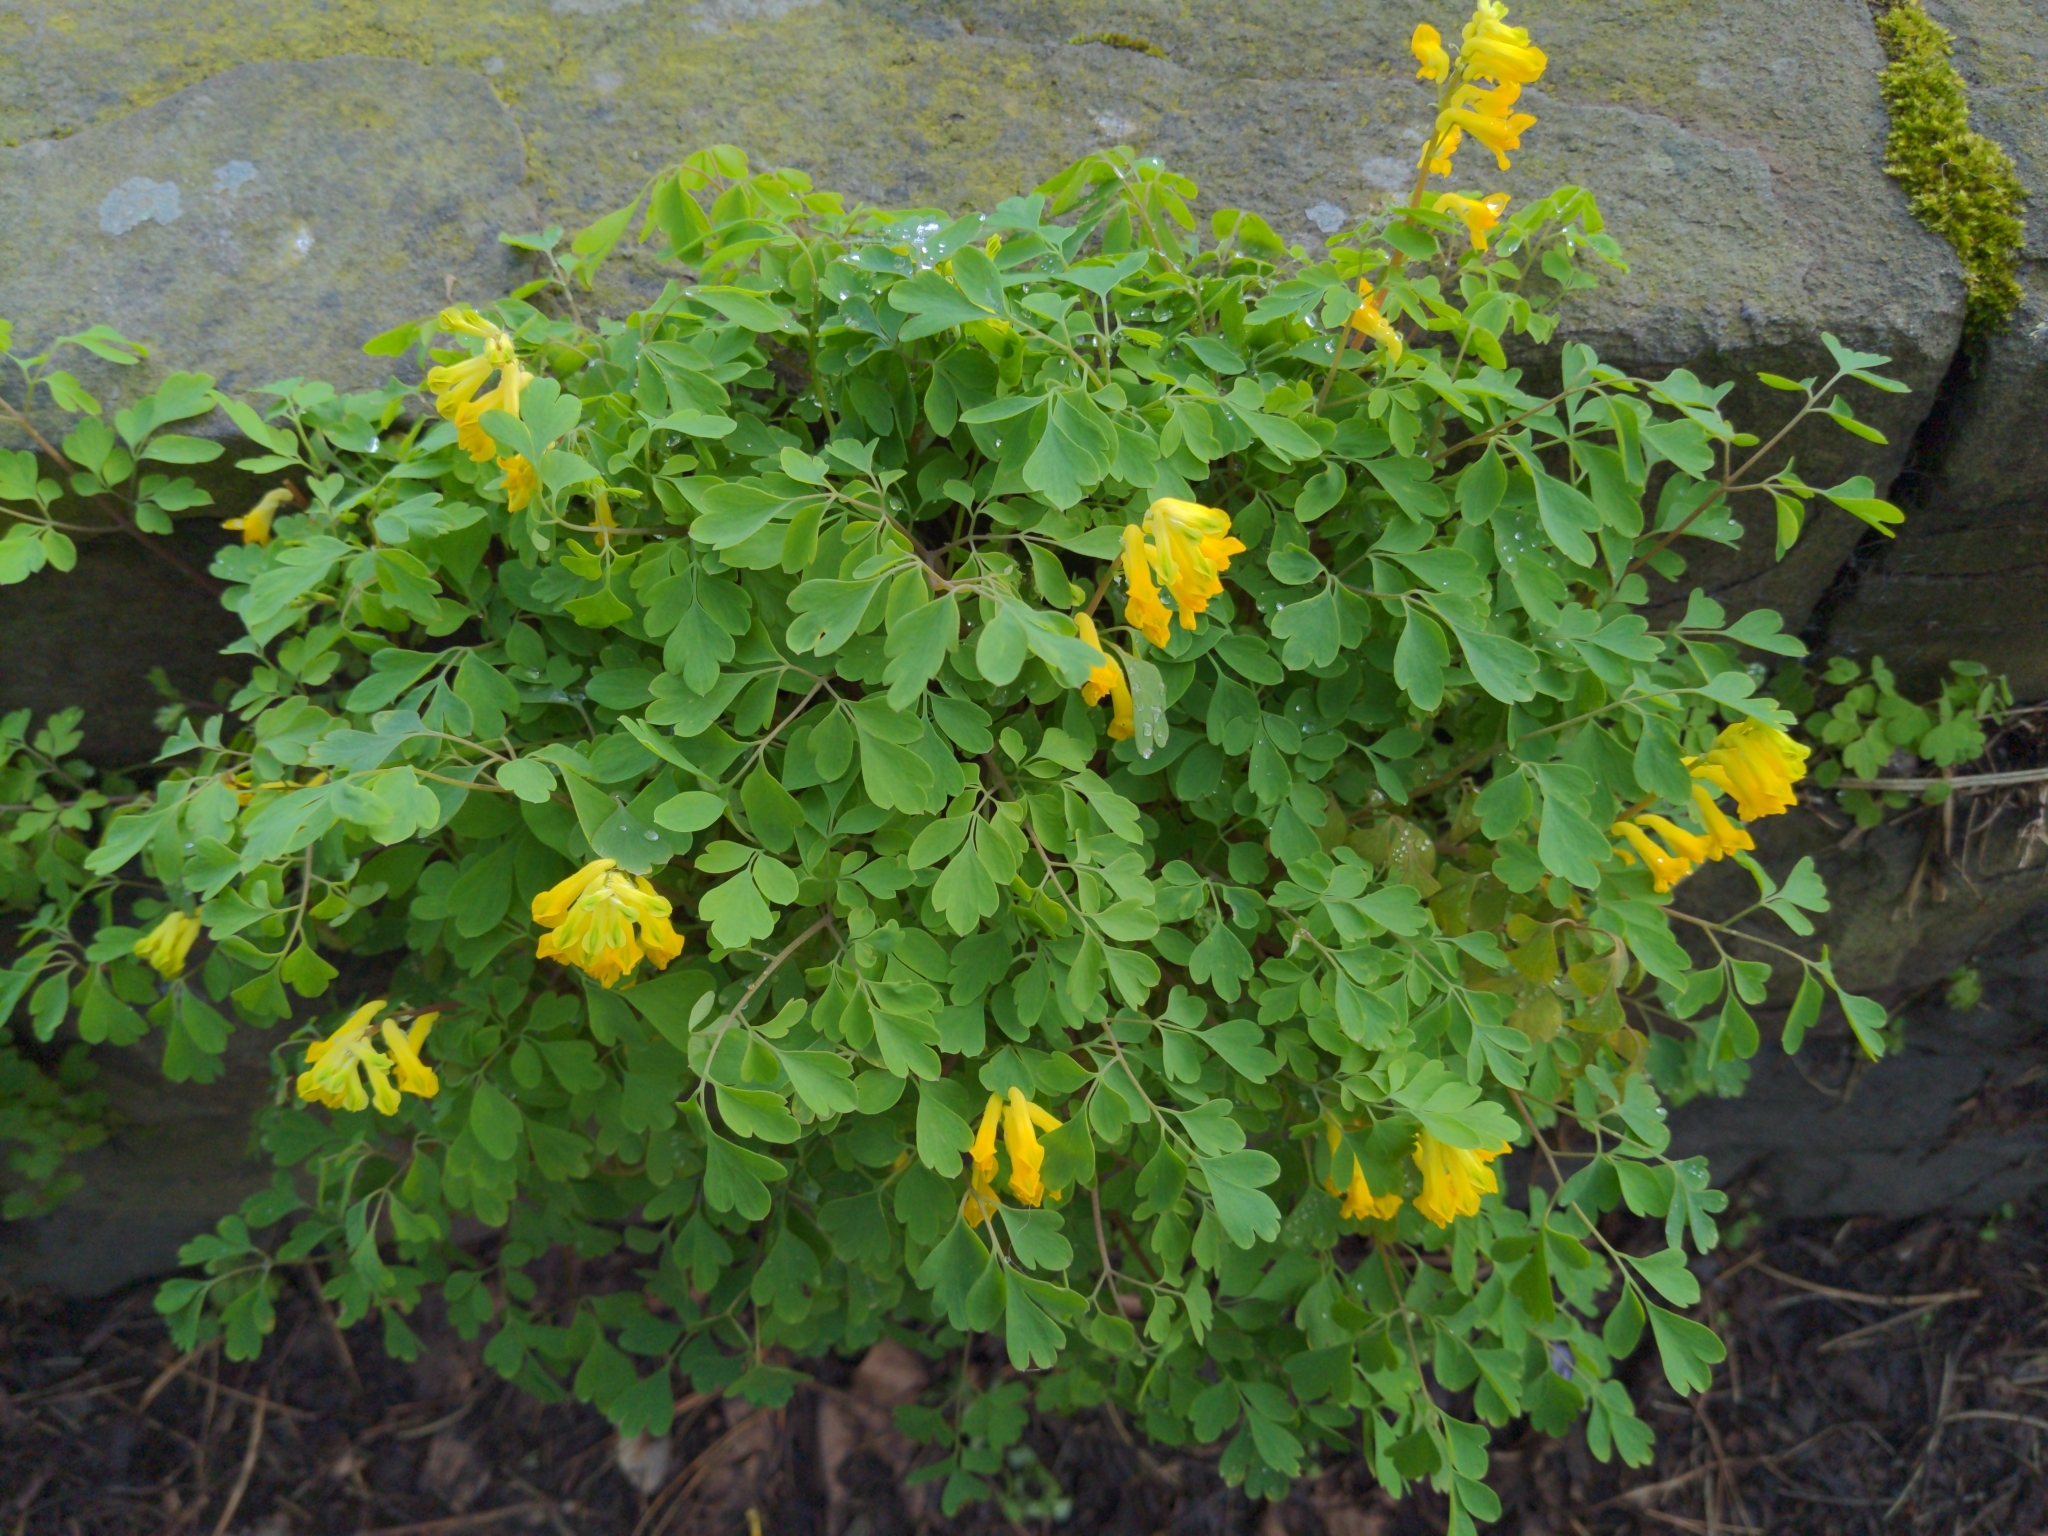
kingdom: Plantae
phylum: Tracheophyta
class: Magnoliopsida
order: Ranunculales
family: Papaveraceae
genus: Pseudofumaria
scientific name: Pseudofumaria lutea
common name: Yellow corydalis
